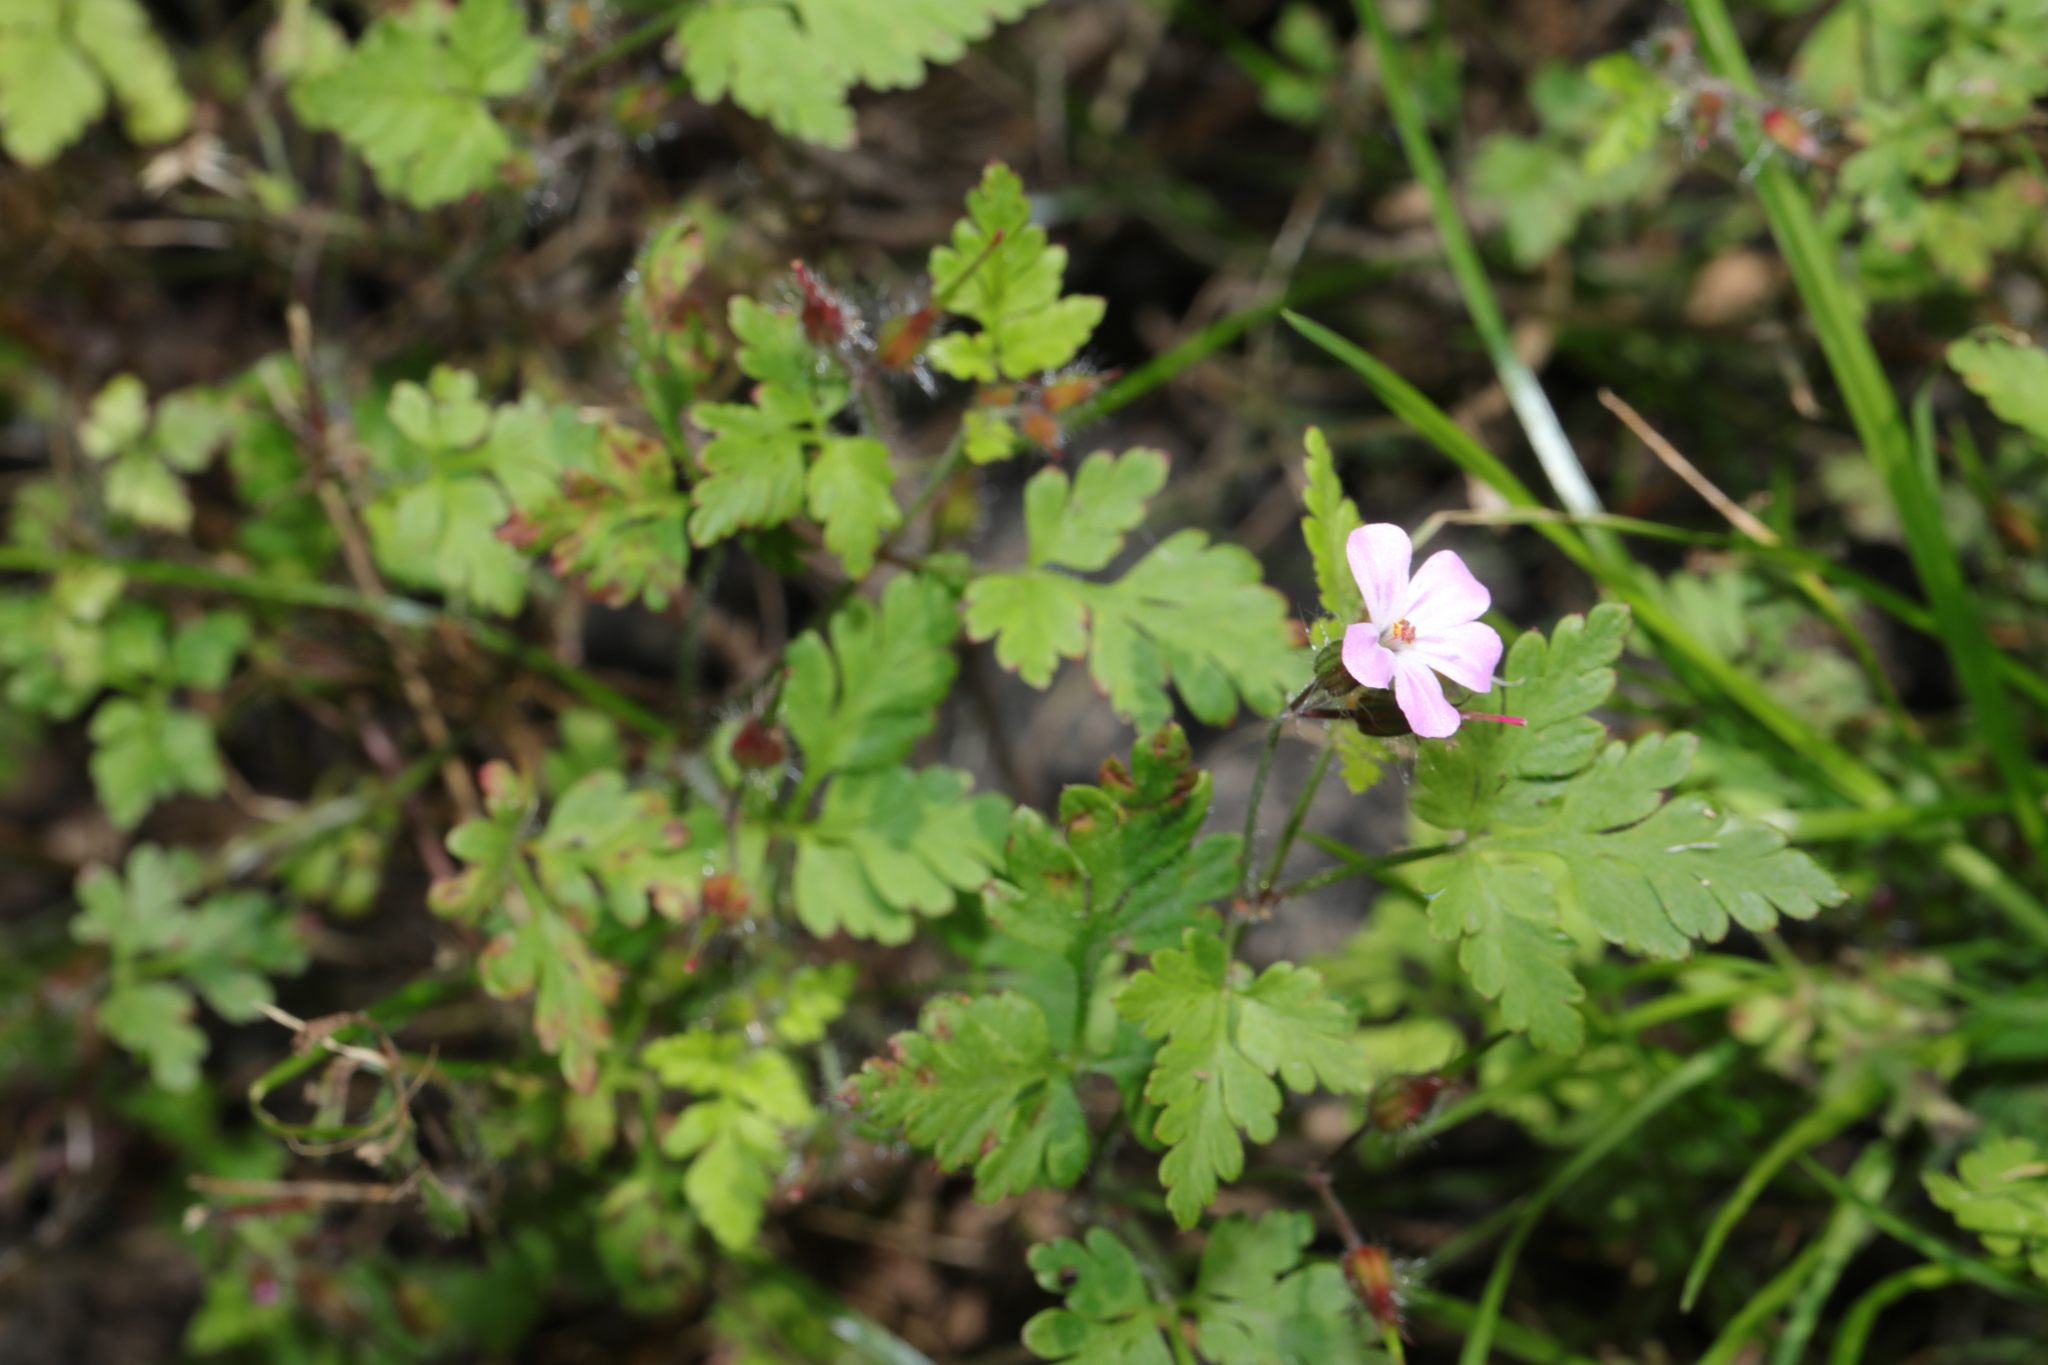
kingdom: Plantae
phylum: Tracheophyta
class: Magnoliopsida
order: Geraniales
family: Geraniaceae
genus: Geranium
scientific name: Geranium robertianum
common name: Herb-robert
